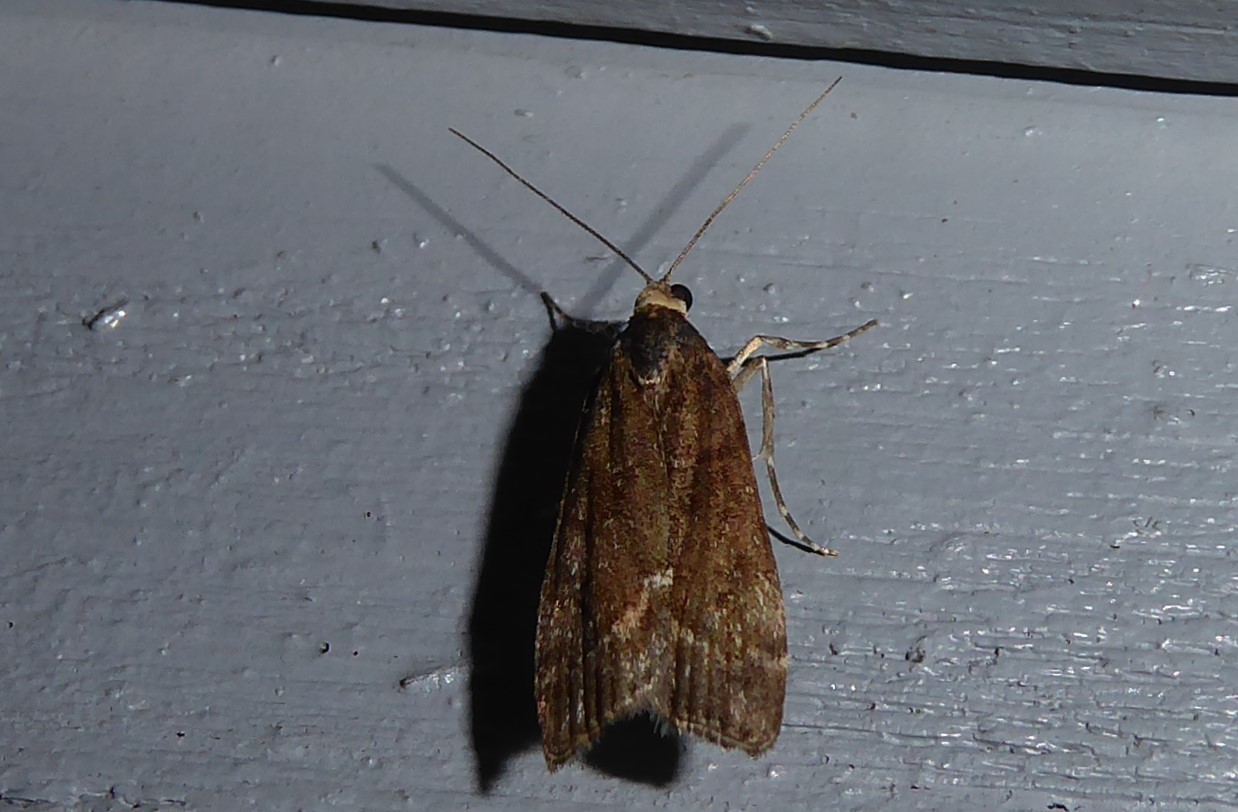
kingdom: Animalia
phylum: Arthropoda
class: Insecta
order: Lepidoptera
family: Crambidae
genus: Eudonia
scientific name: Eudonia submarginalis
